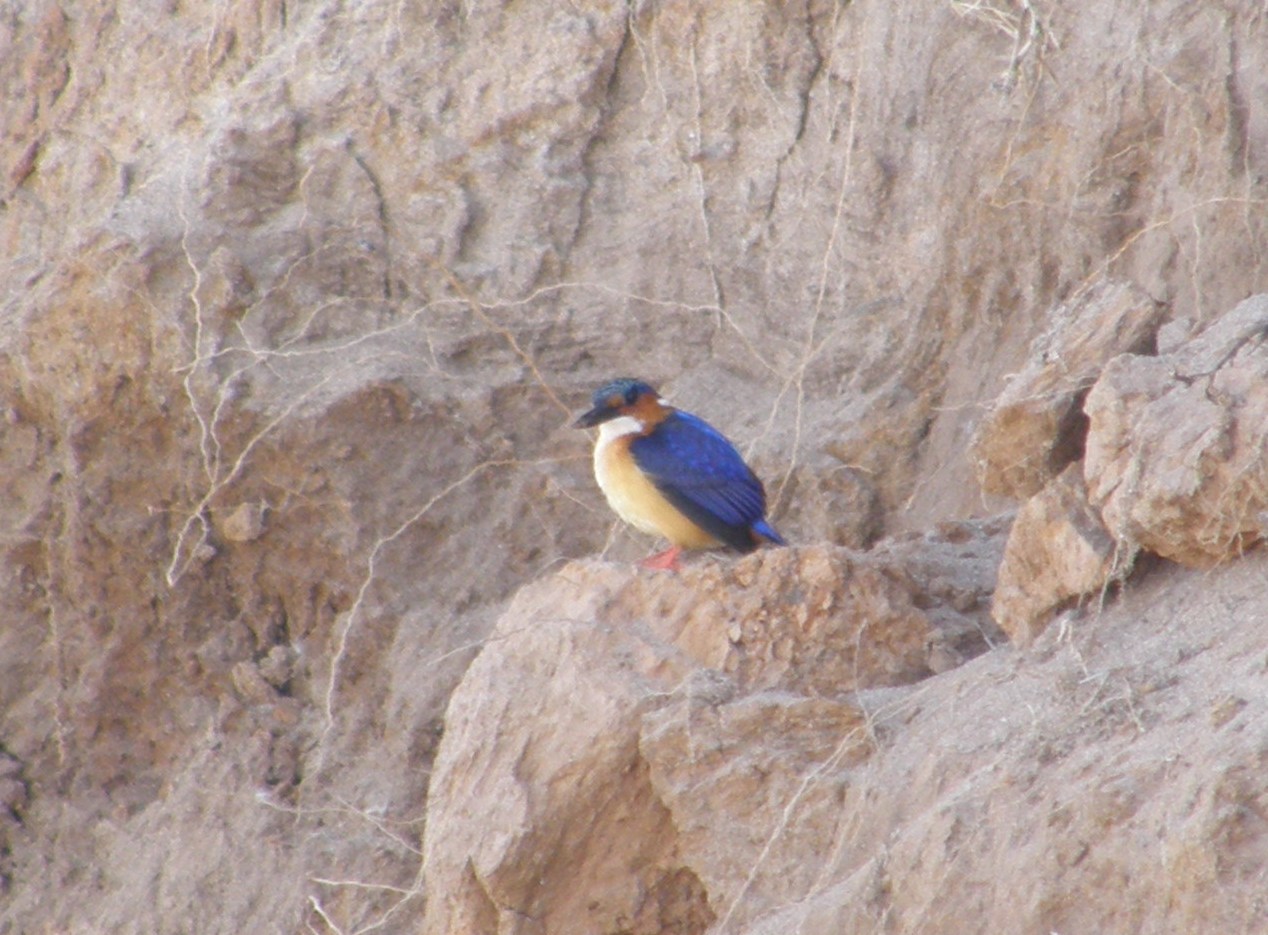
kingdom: Animalia
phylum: Chordata
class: Aves
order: Coraciiformes
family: Alcedinidae
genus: Corythornis
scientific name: Corythornis vintsioides
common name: Malagasy kingfisher
